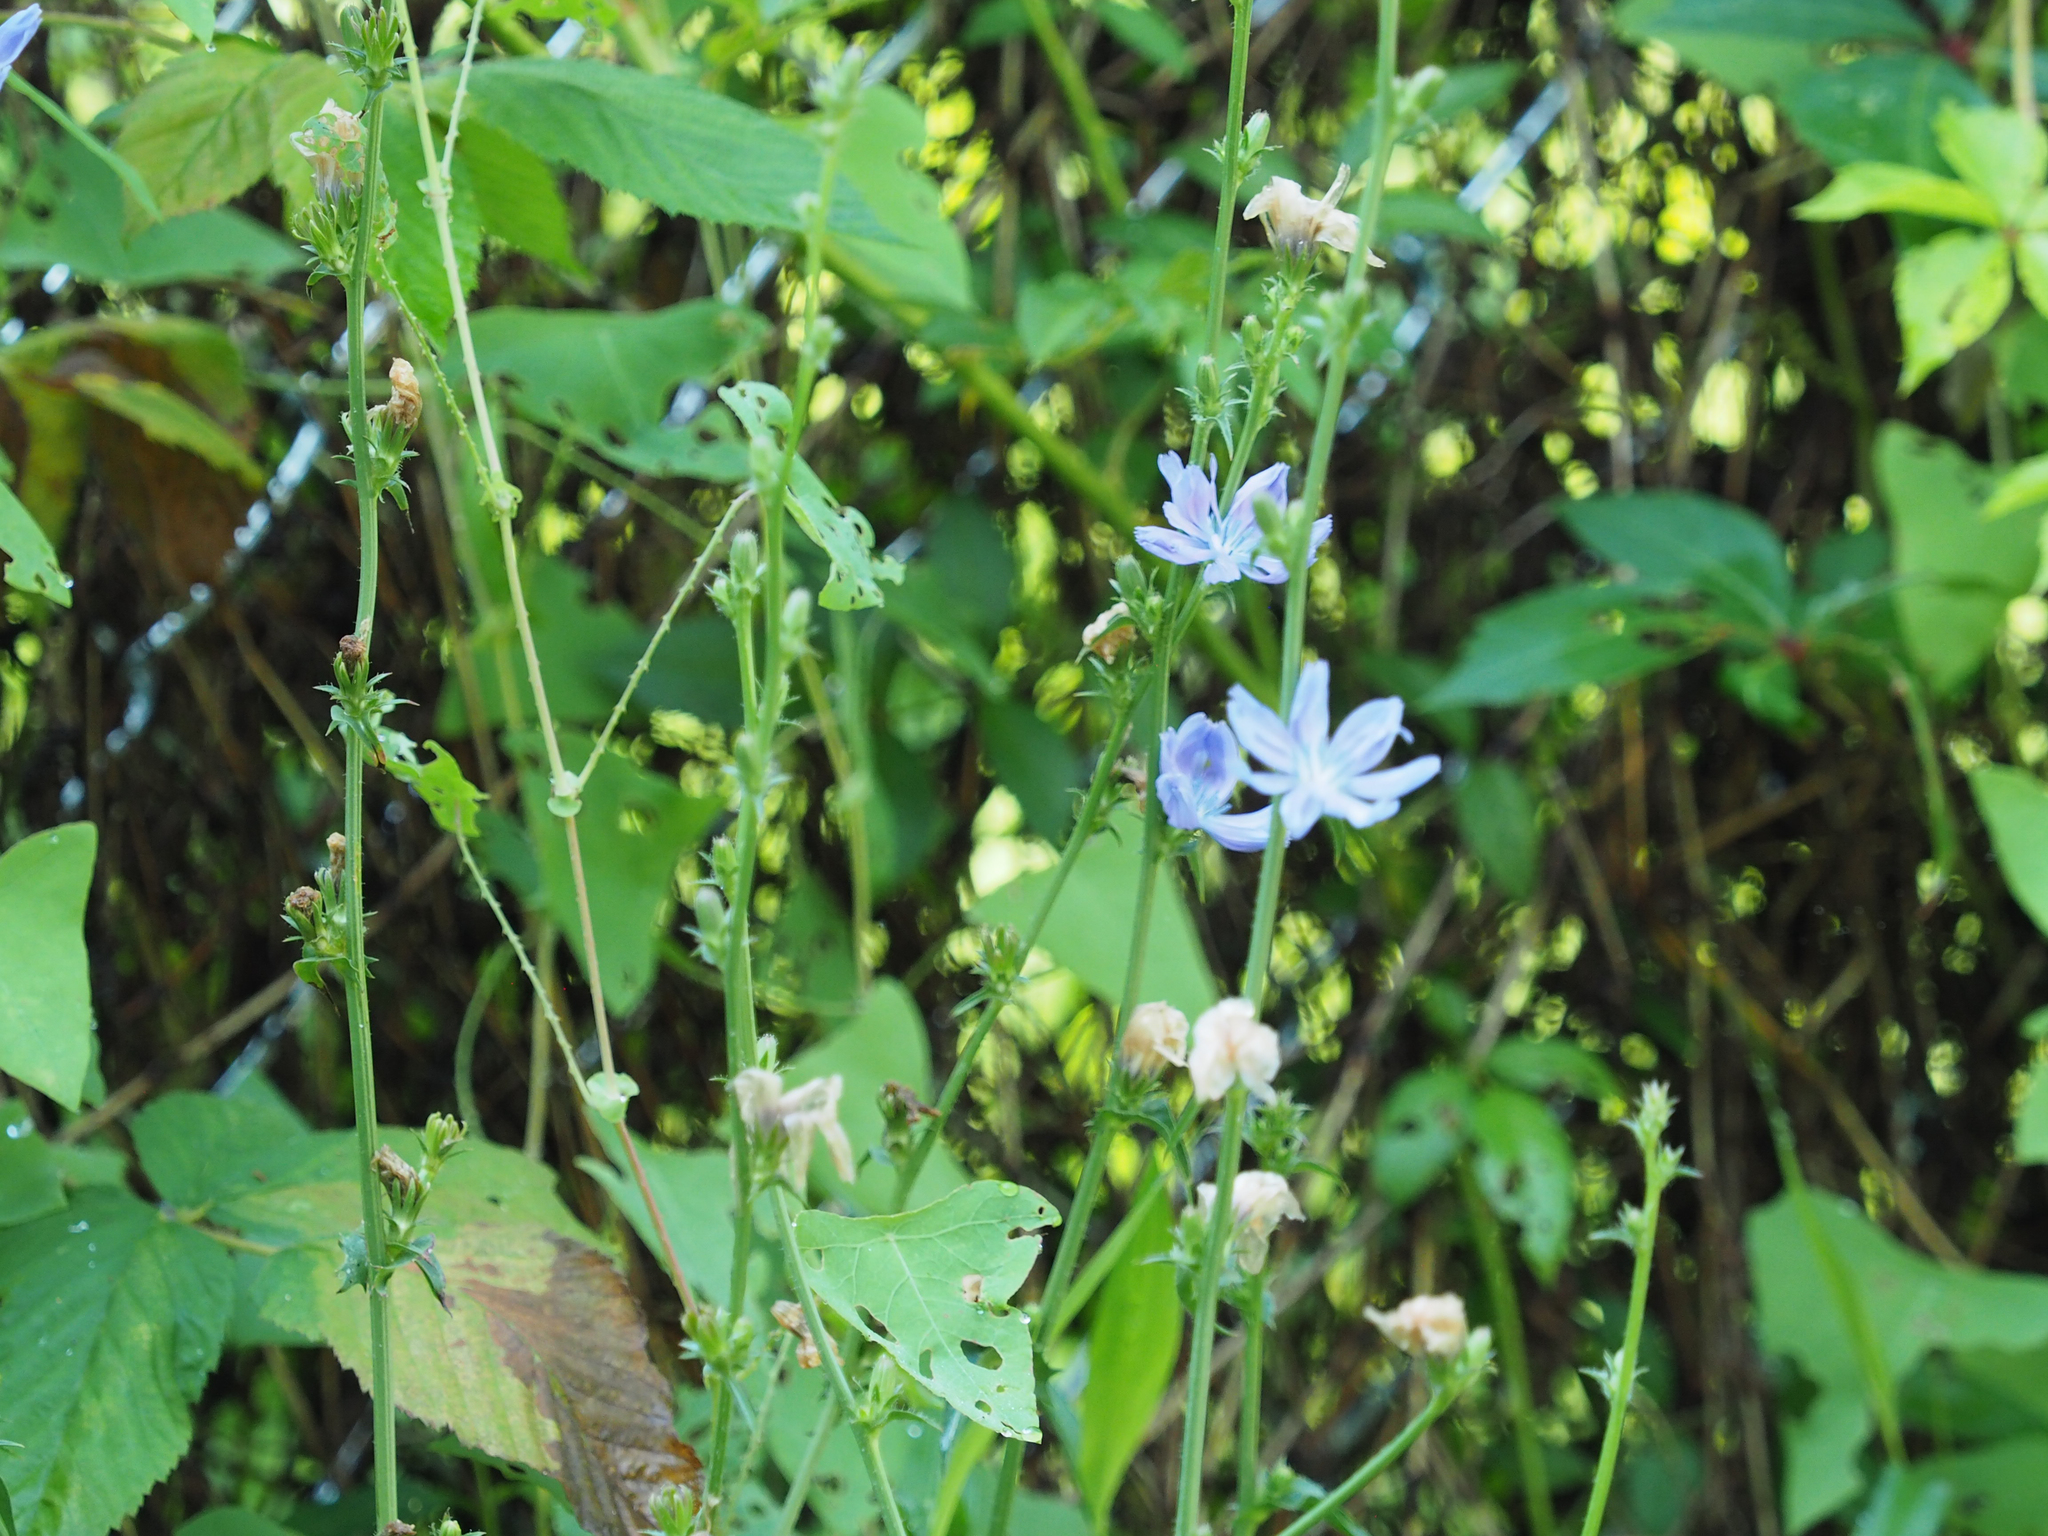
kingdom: Plantae
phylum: Tracheophyta
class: Magnoliopsida
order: Asterales
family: Asteraceae
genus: Cichorium
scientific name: Cichorium intybus
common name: Chicory
